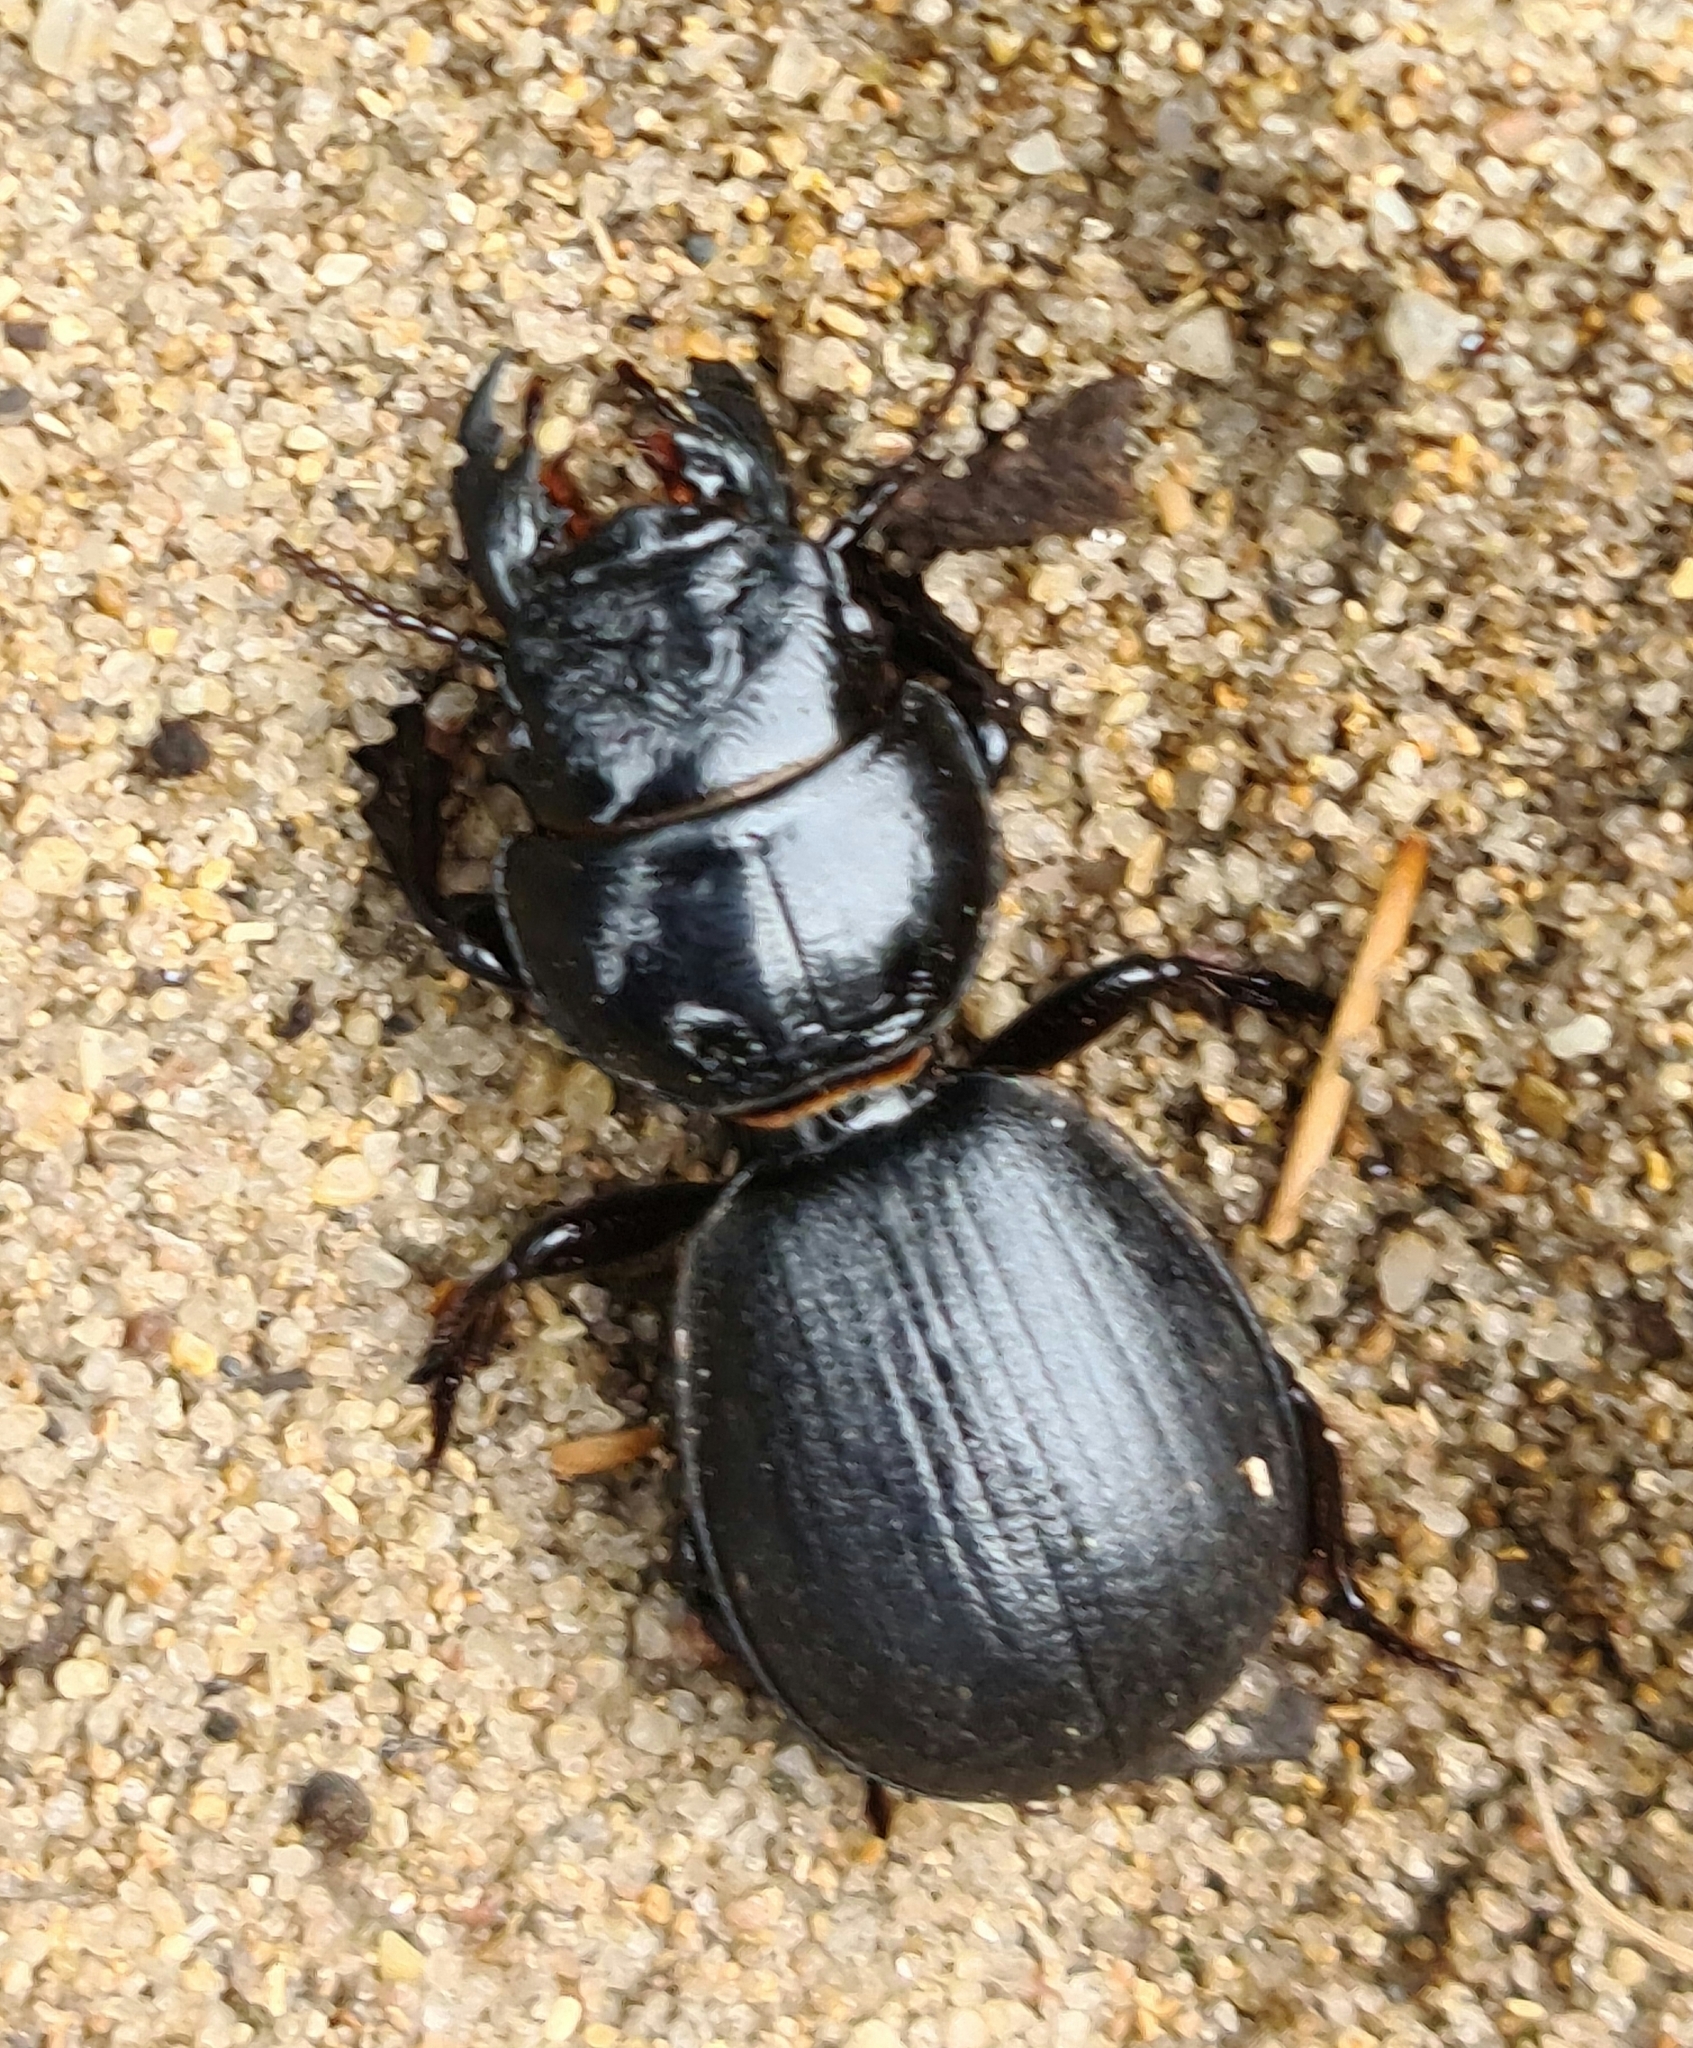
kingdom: Animalia
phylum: Arthropoda
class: Insecta
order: Coleoptera
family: Carabidae
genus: Scaraphites
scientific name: Scaraphites hirtipes
